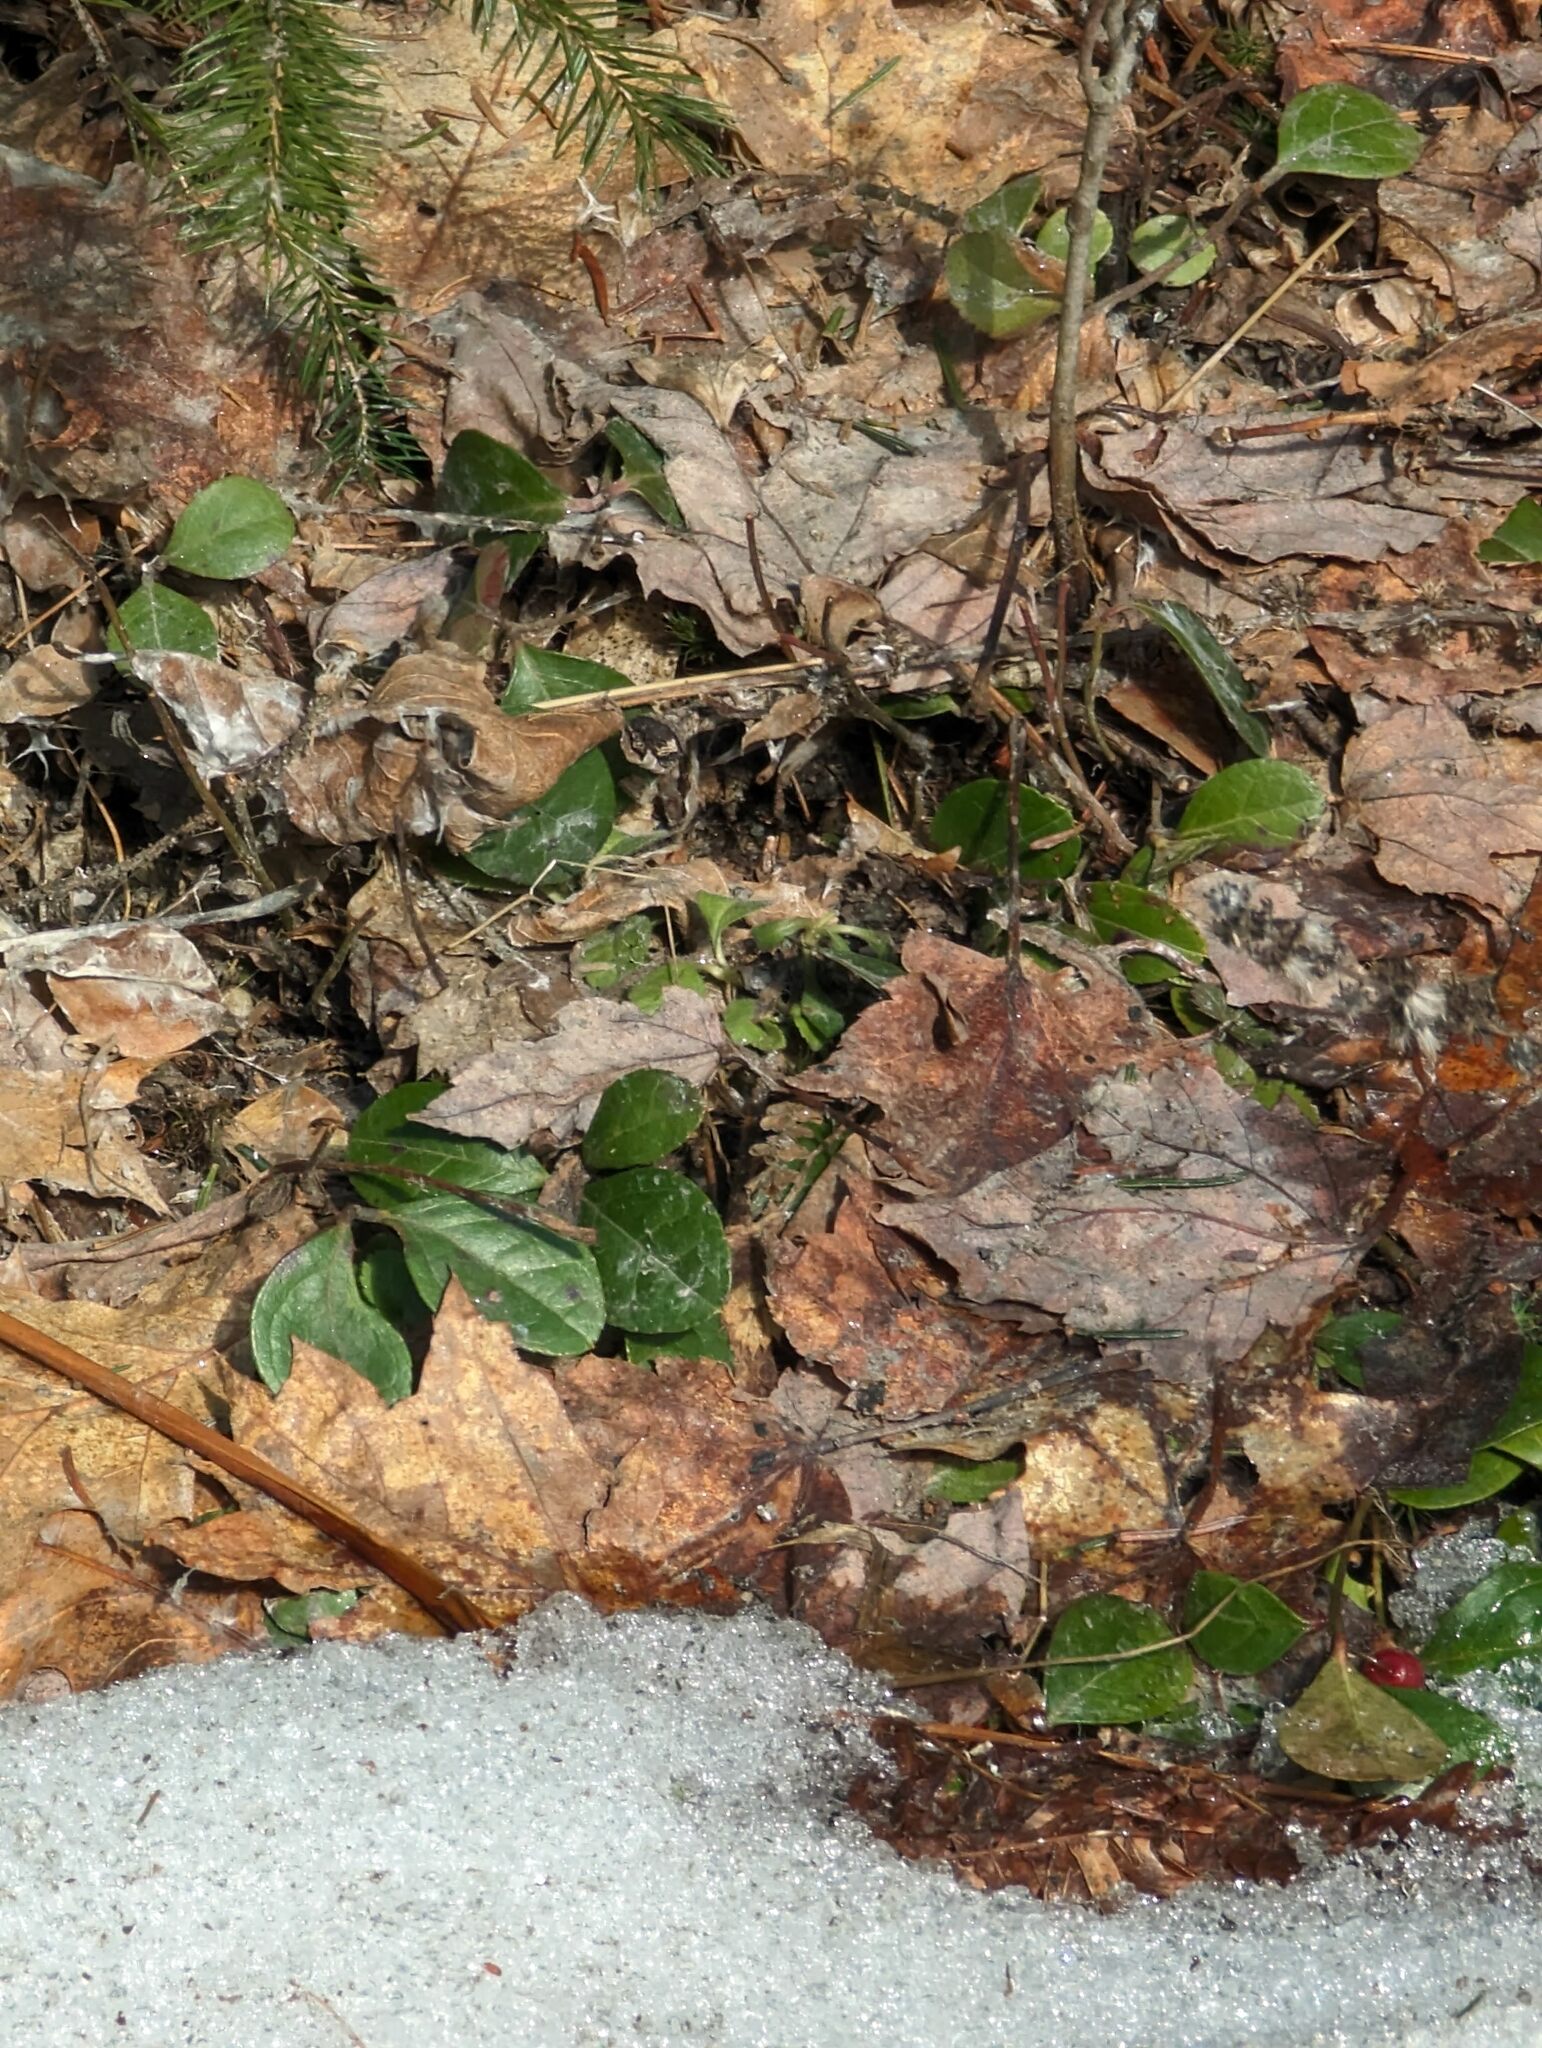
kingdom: Plantae
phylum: Tracheophyta
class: Magnoliopsida
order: Ericales
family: Ericaceae
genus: Gaultheria
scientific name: Gaultheria procumbens
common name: Checkerberry
